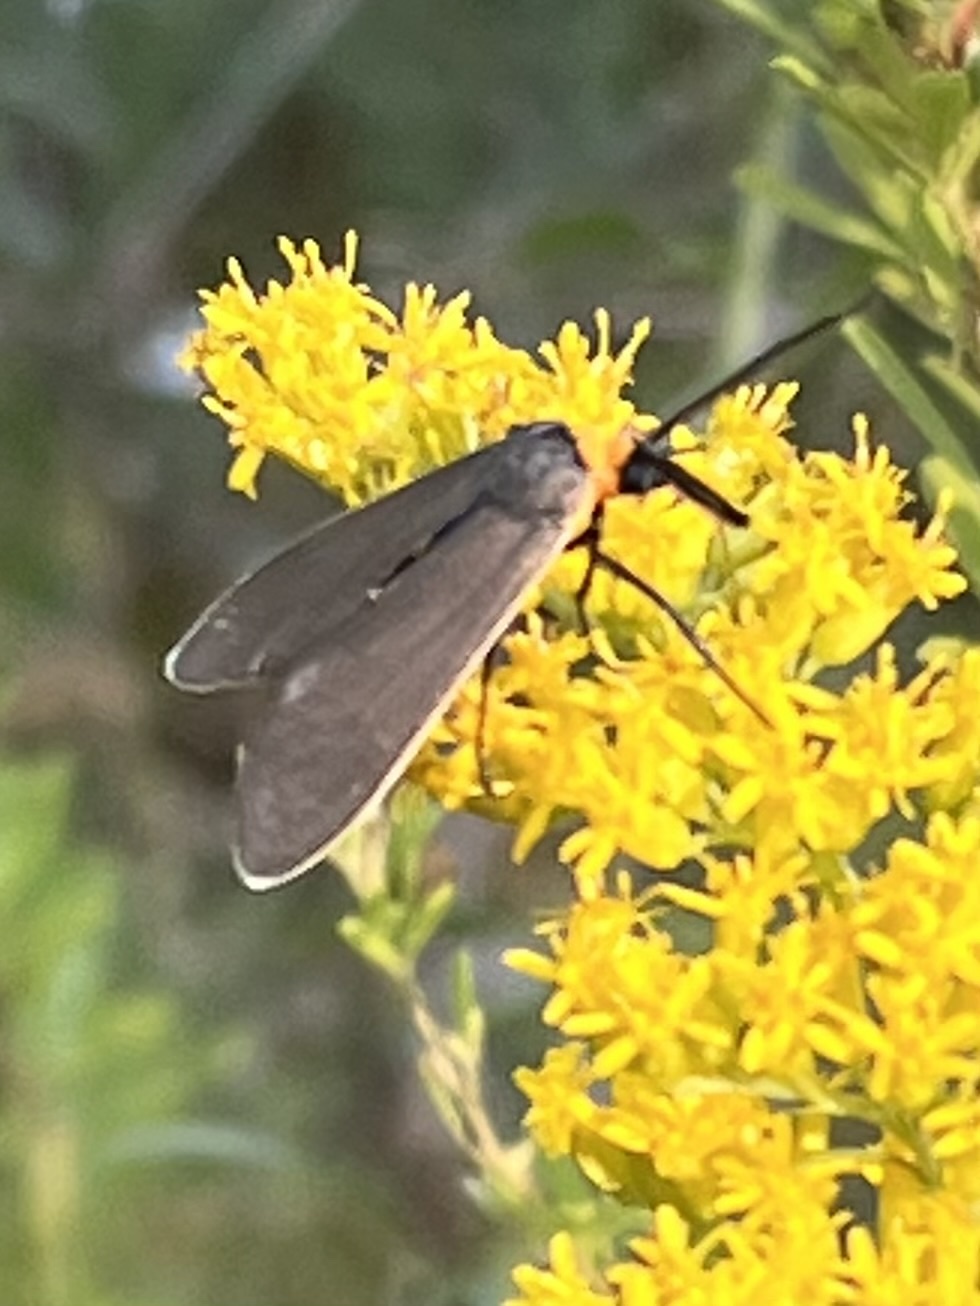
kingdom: Animalia
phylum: Arthropoda
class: Insecta
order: Lepidoptera
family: Erebidae
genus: Cisseps
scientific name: Cisseps fulvicollis
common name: Yellow-collared scape moth
